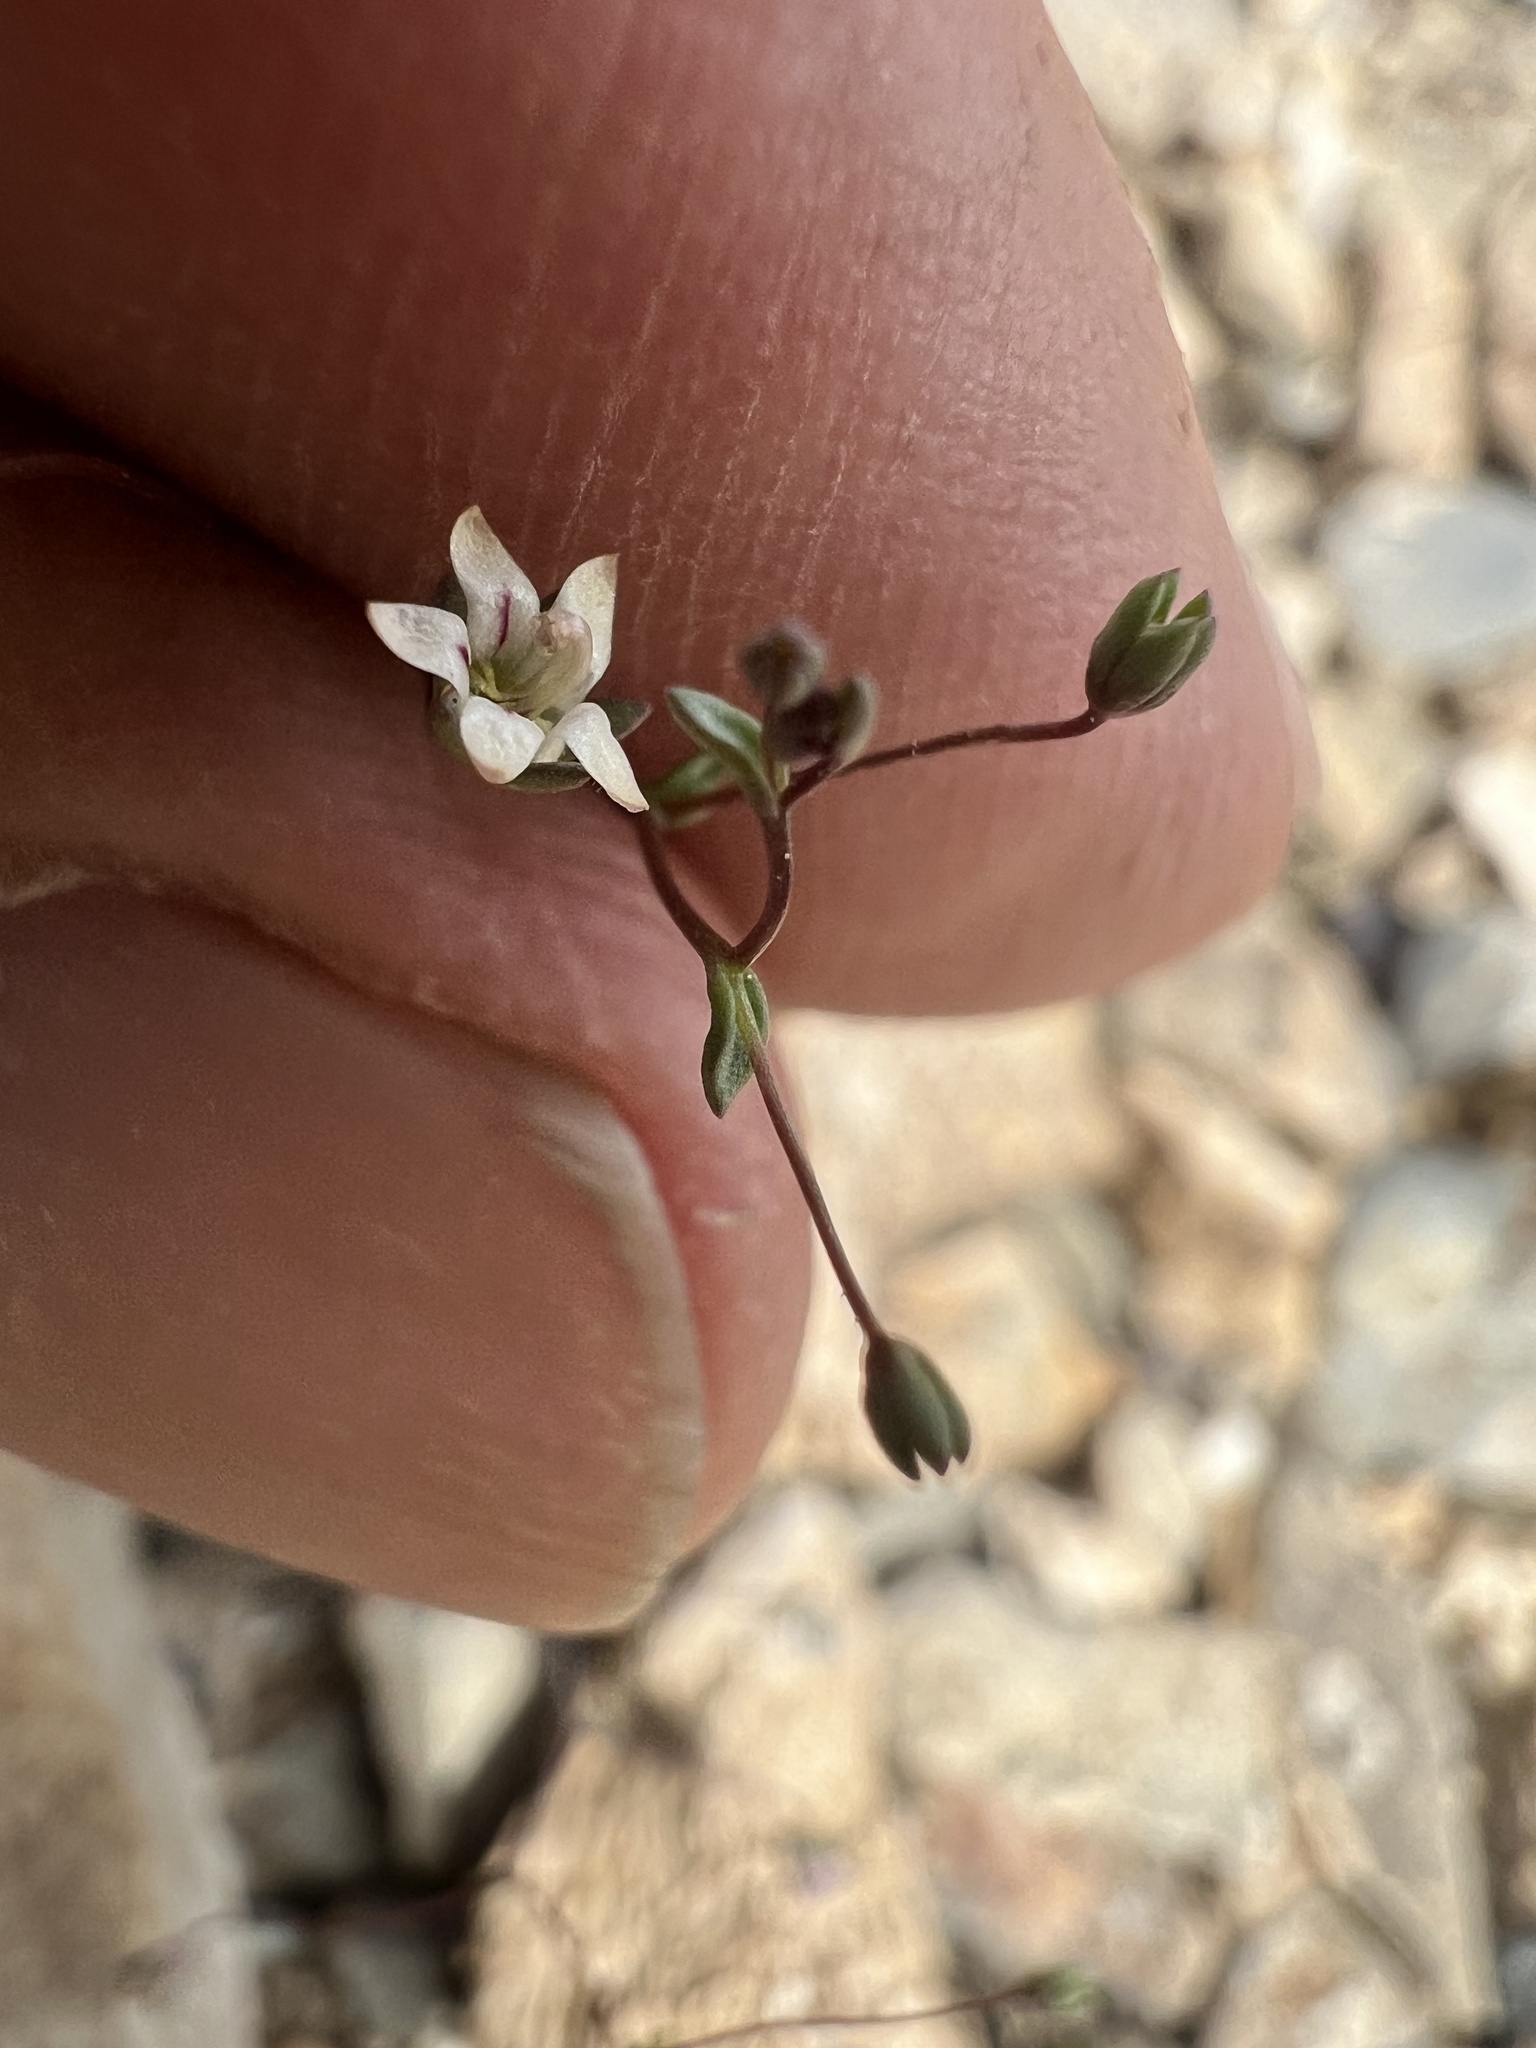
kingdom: Plantae
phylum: Tracheophyta
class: Magnoliopsida
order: Asterales
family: Campanulaceae
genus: Nemacladus
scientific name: Nemacladus inyoensis
